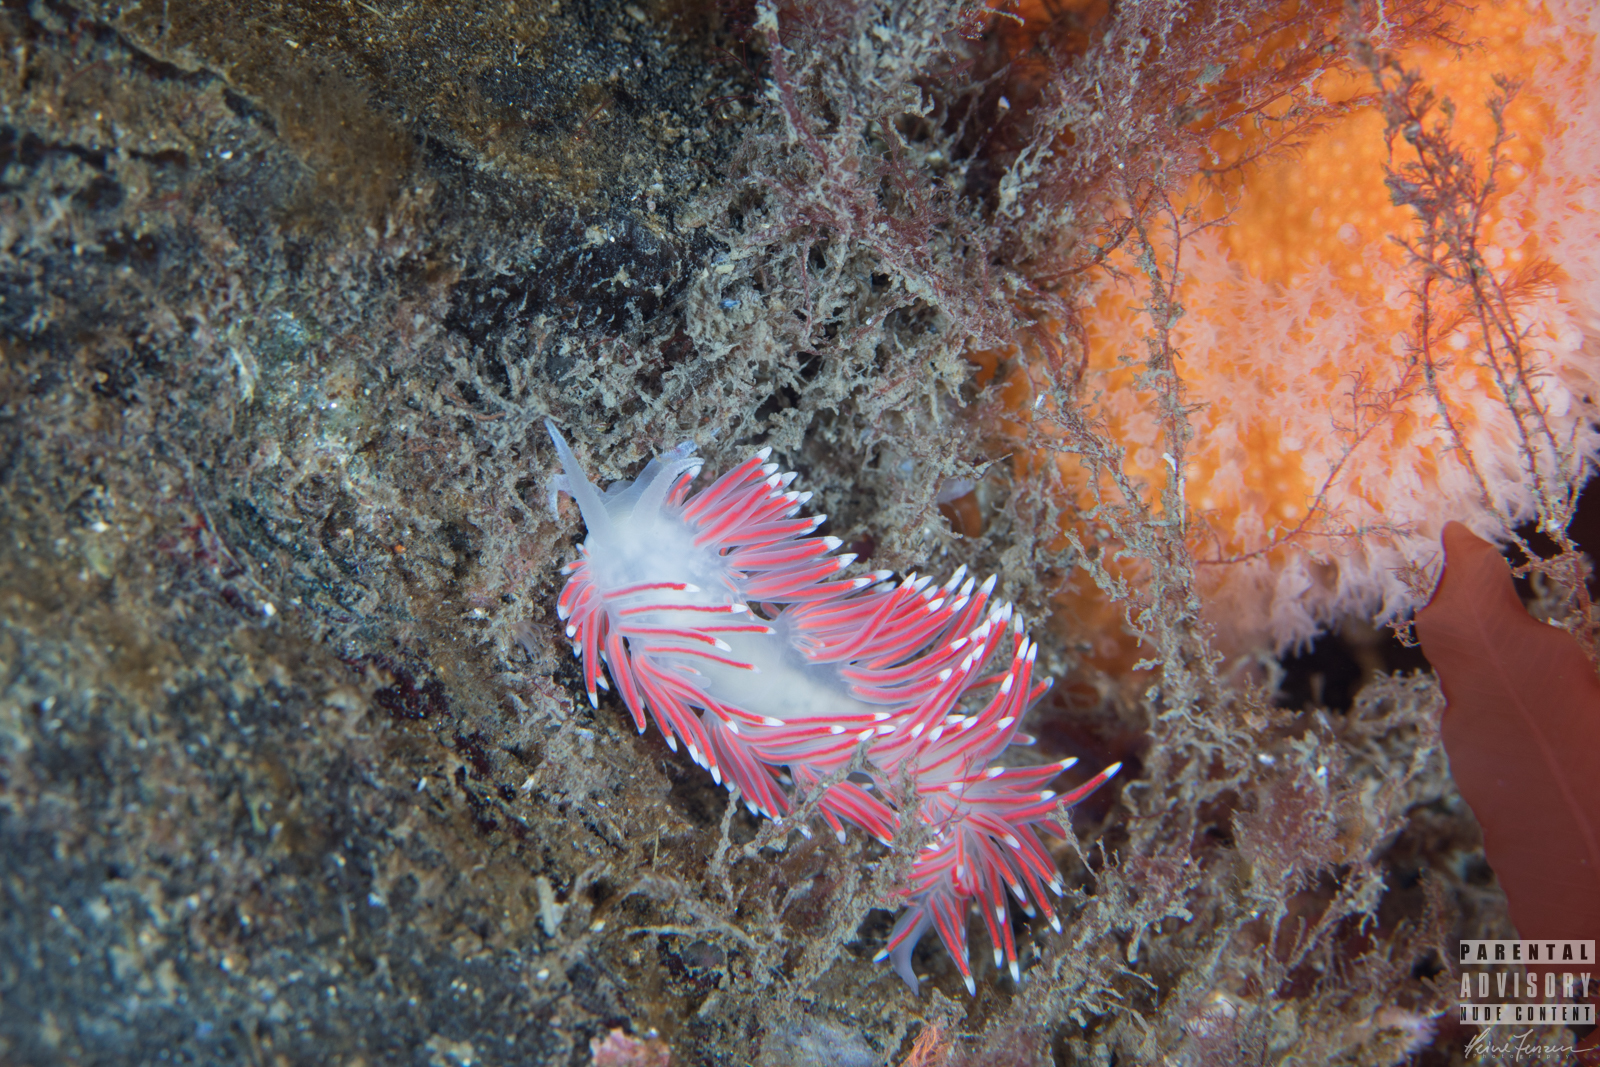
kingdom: Animalia
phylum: Mollusca
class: Gastropoda
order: Nudibranchia
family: Flabellinidae
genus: Carronella
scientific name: Carronella pellucida
